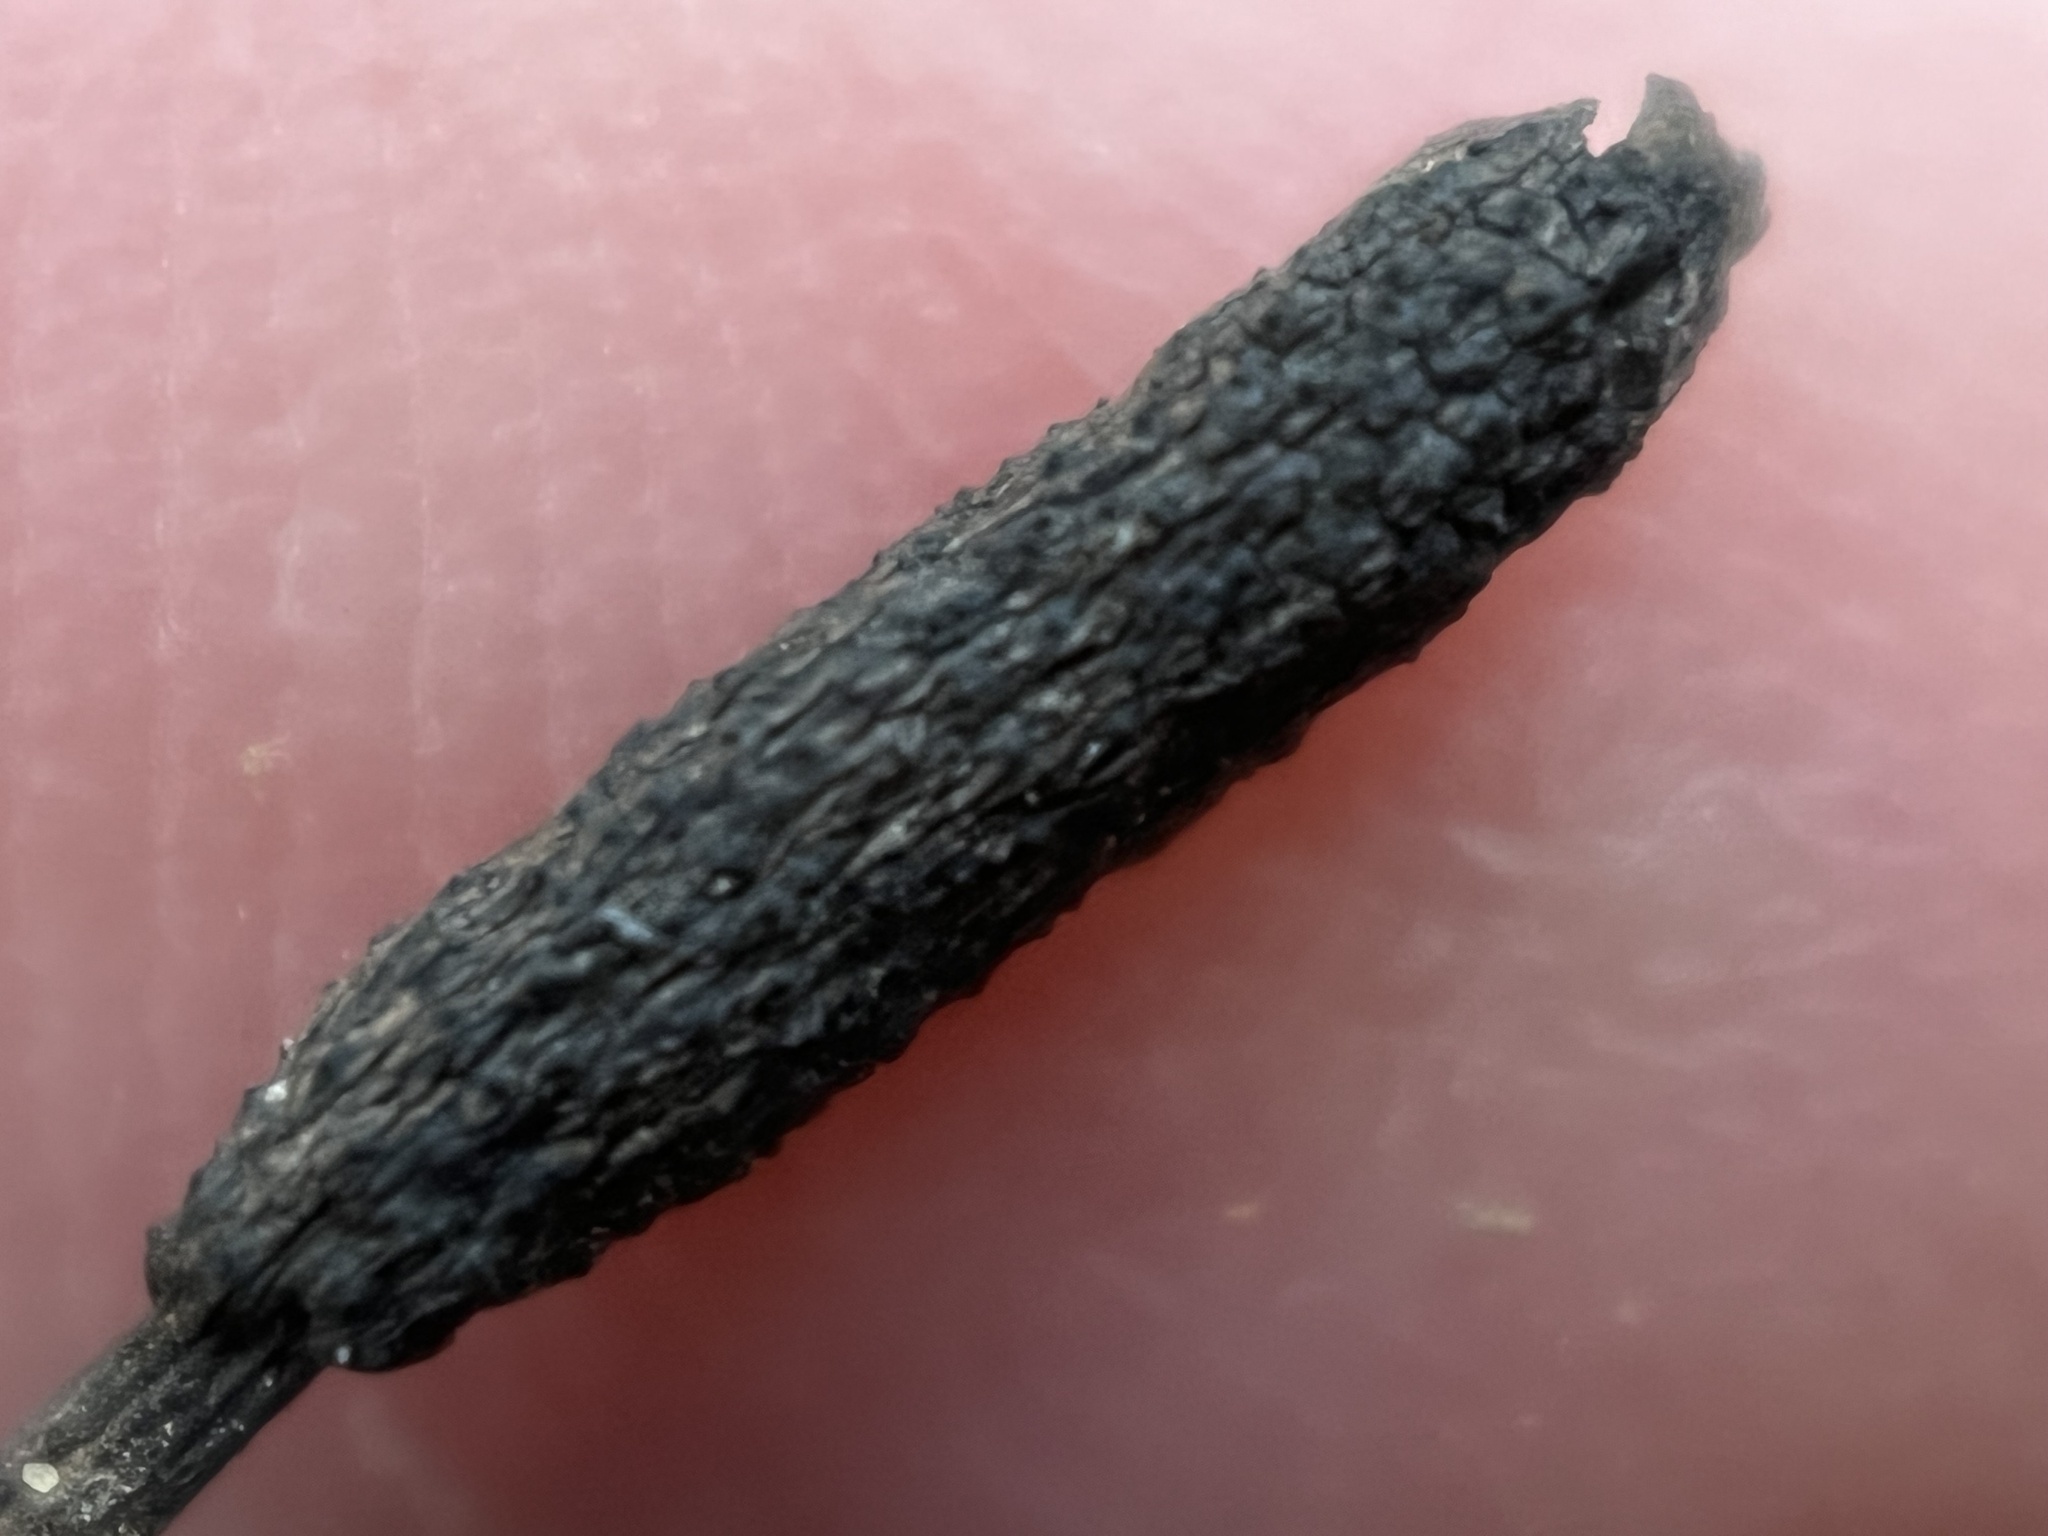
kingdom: Fungi
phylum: Ascomycota
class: Sordariomycetes
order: Xylariales
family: Xylariaceae
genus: Xylaria
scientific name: Xylaria liquidambaris
